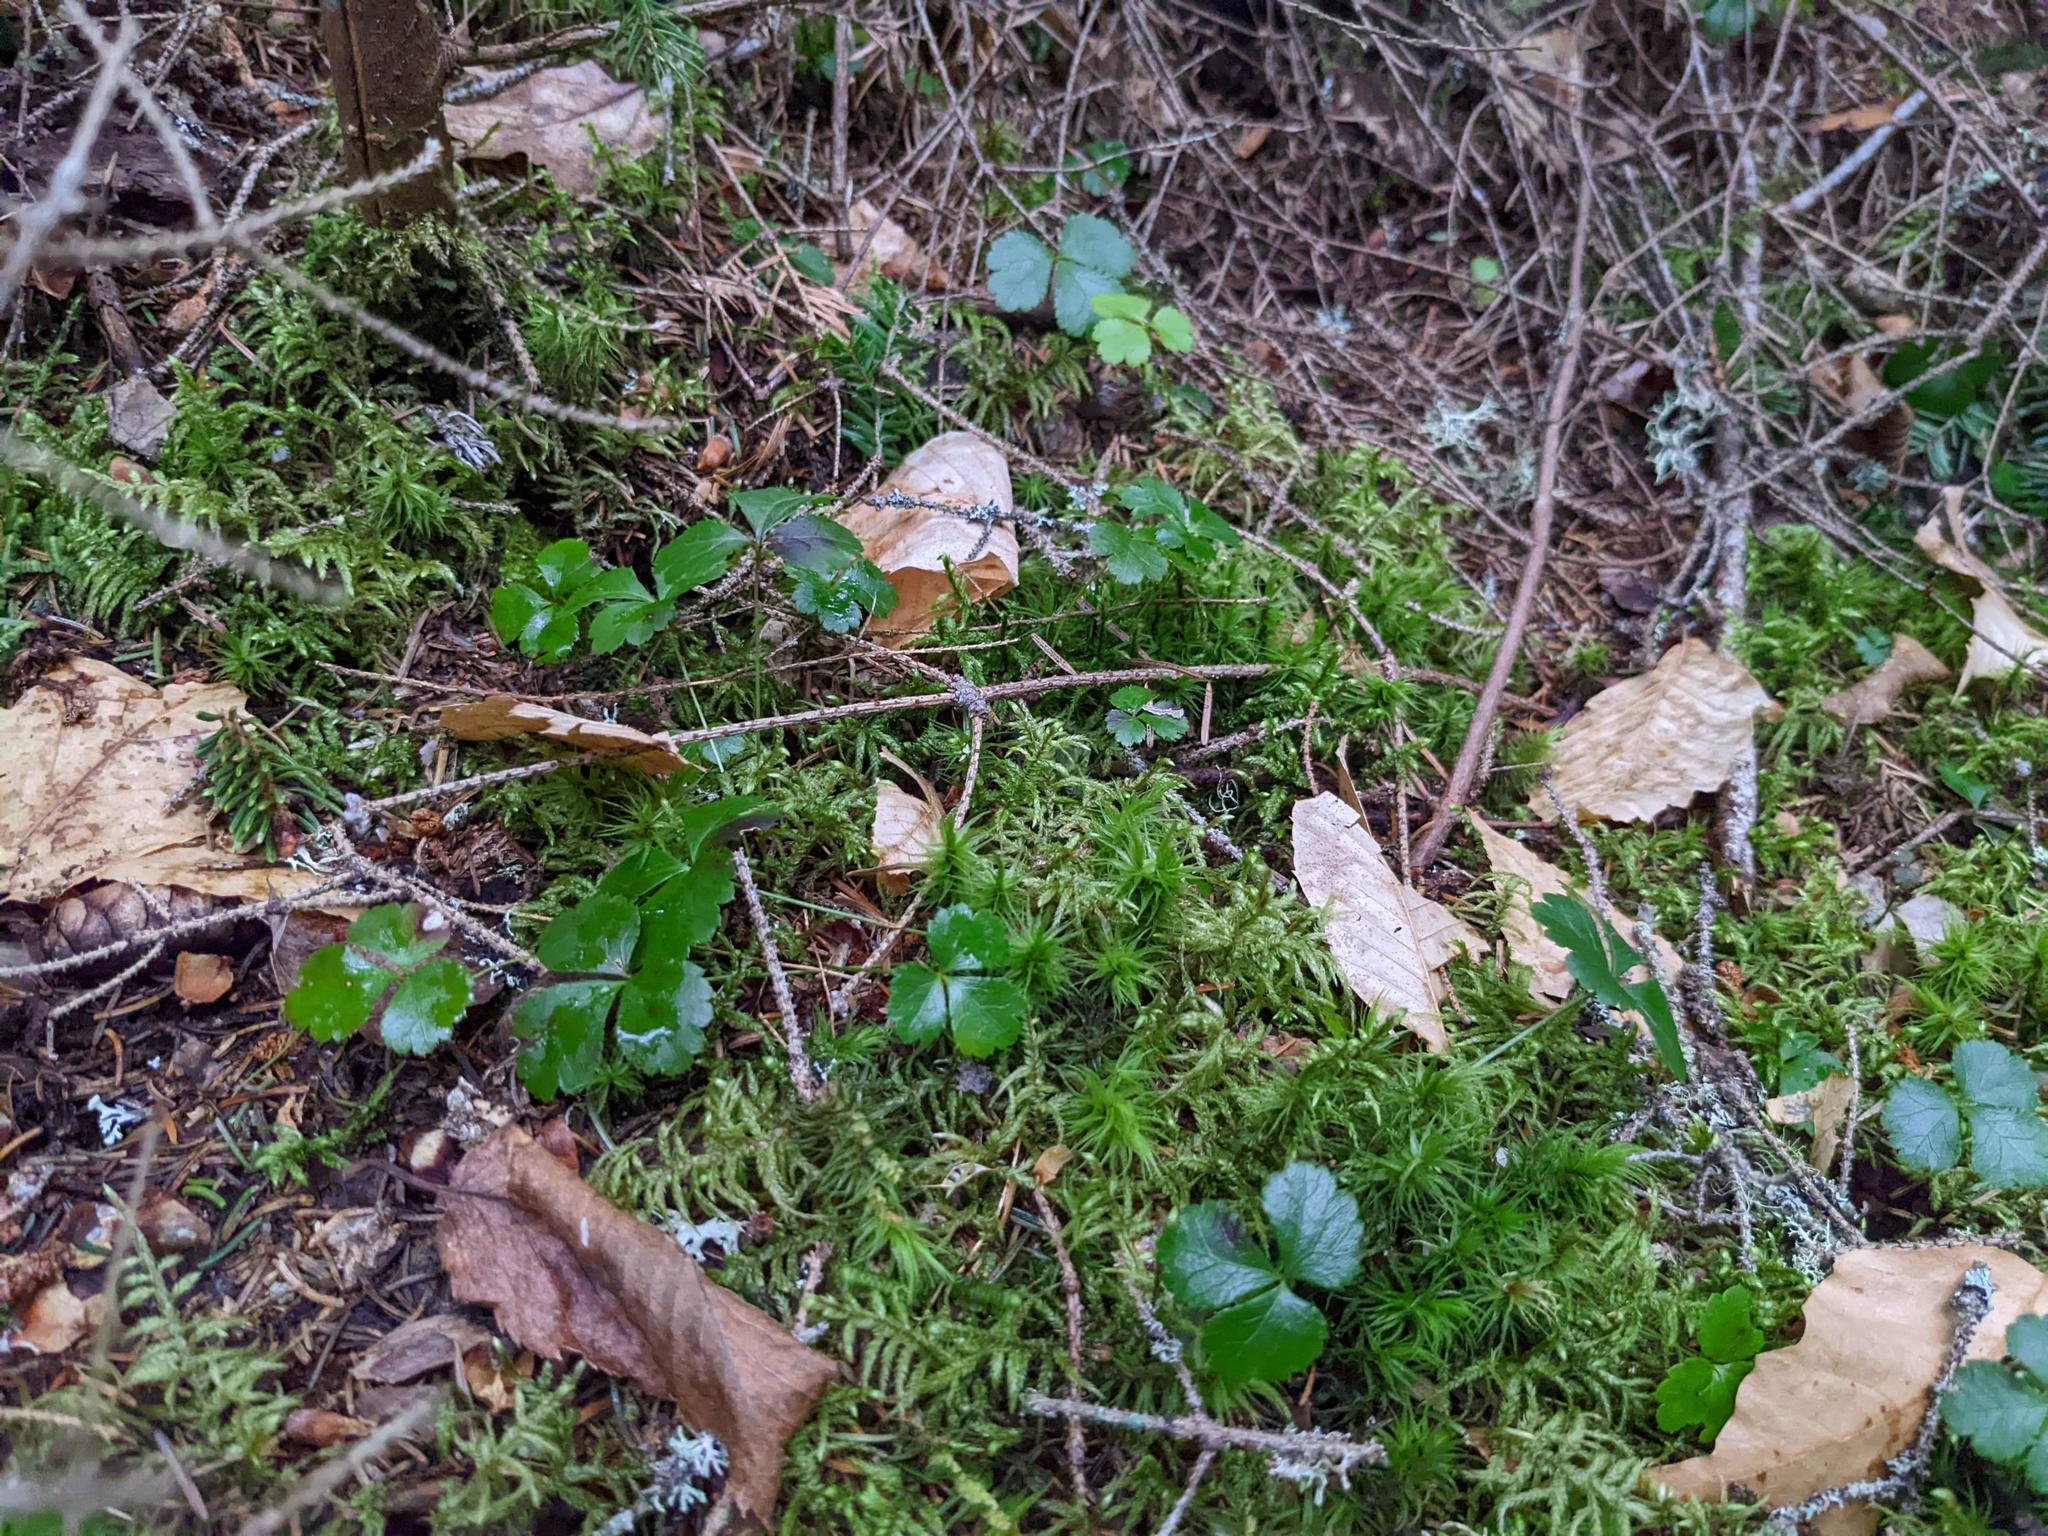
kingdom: Plantae
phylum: Tracheophyta
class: Magnoliopsida
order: Ranunculales
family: Ranunculaceae
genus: Coptis
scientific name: Coptis trifolia
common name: Canker-root
